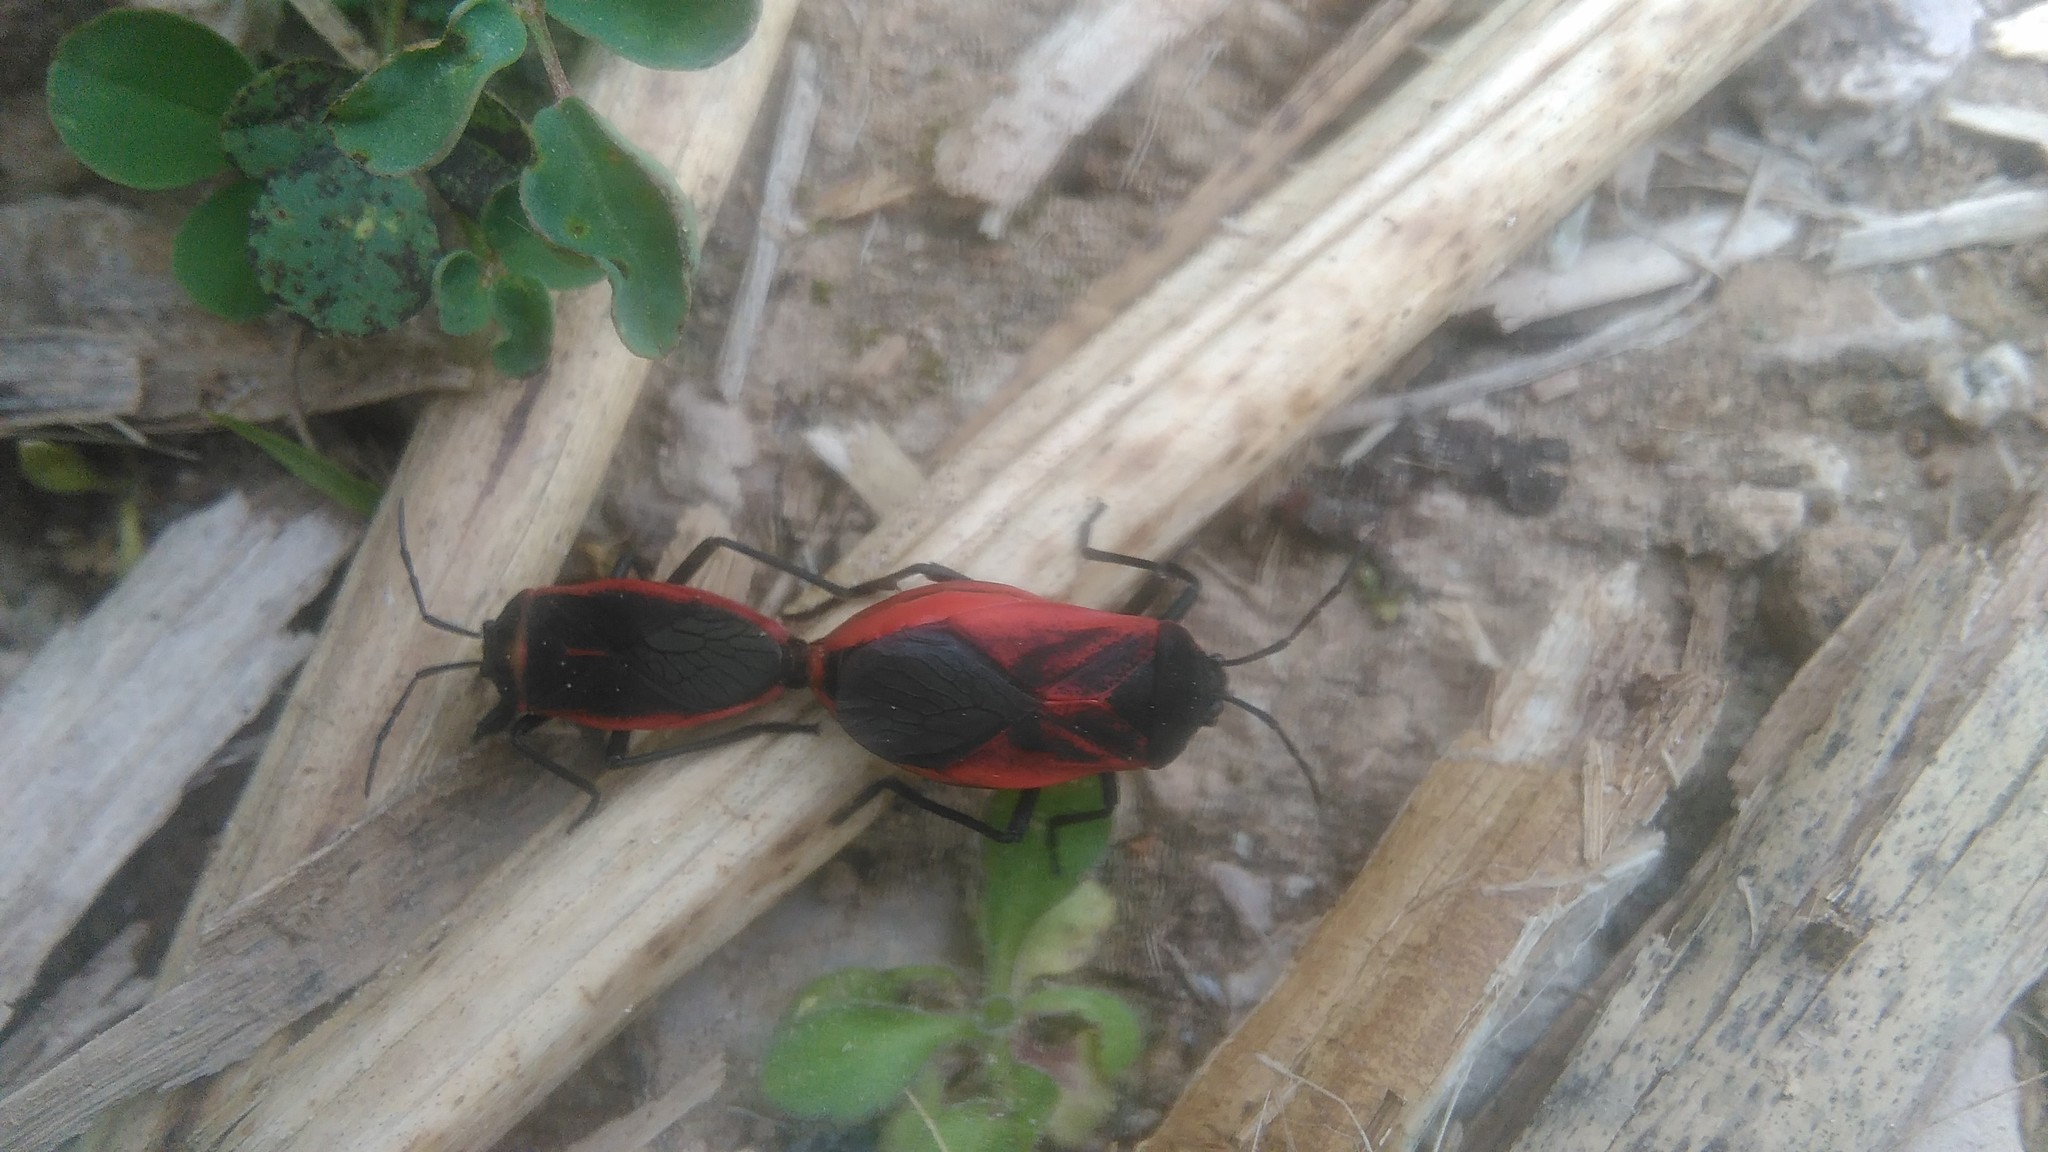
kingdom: Animalia
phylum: Arthropoda
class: Insecta
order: Hemiptera
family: Largidae
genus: Largus
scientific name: Largus rufipennis
